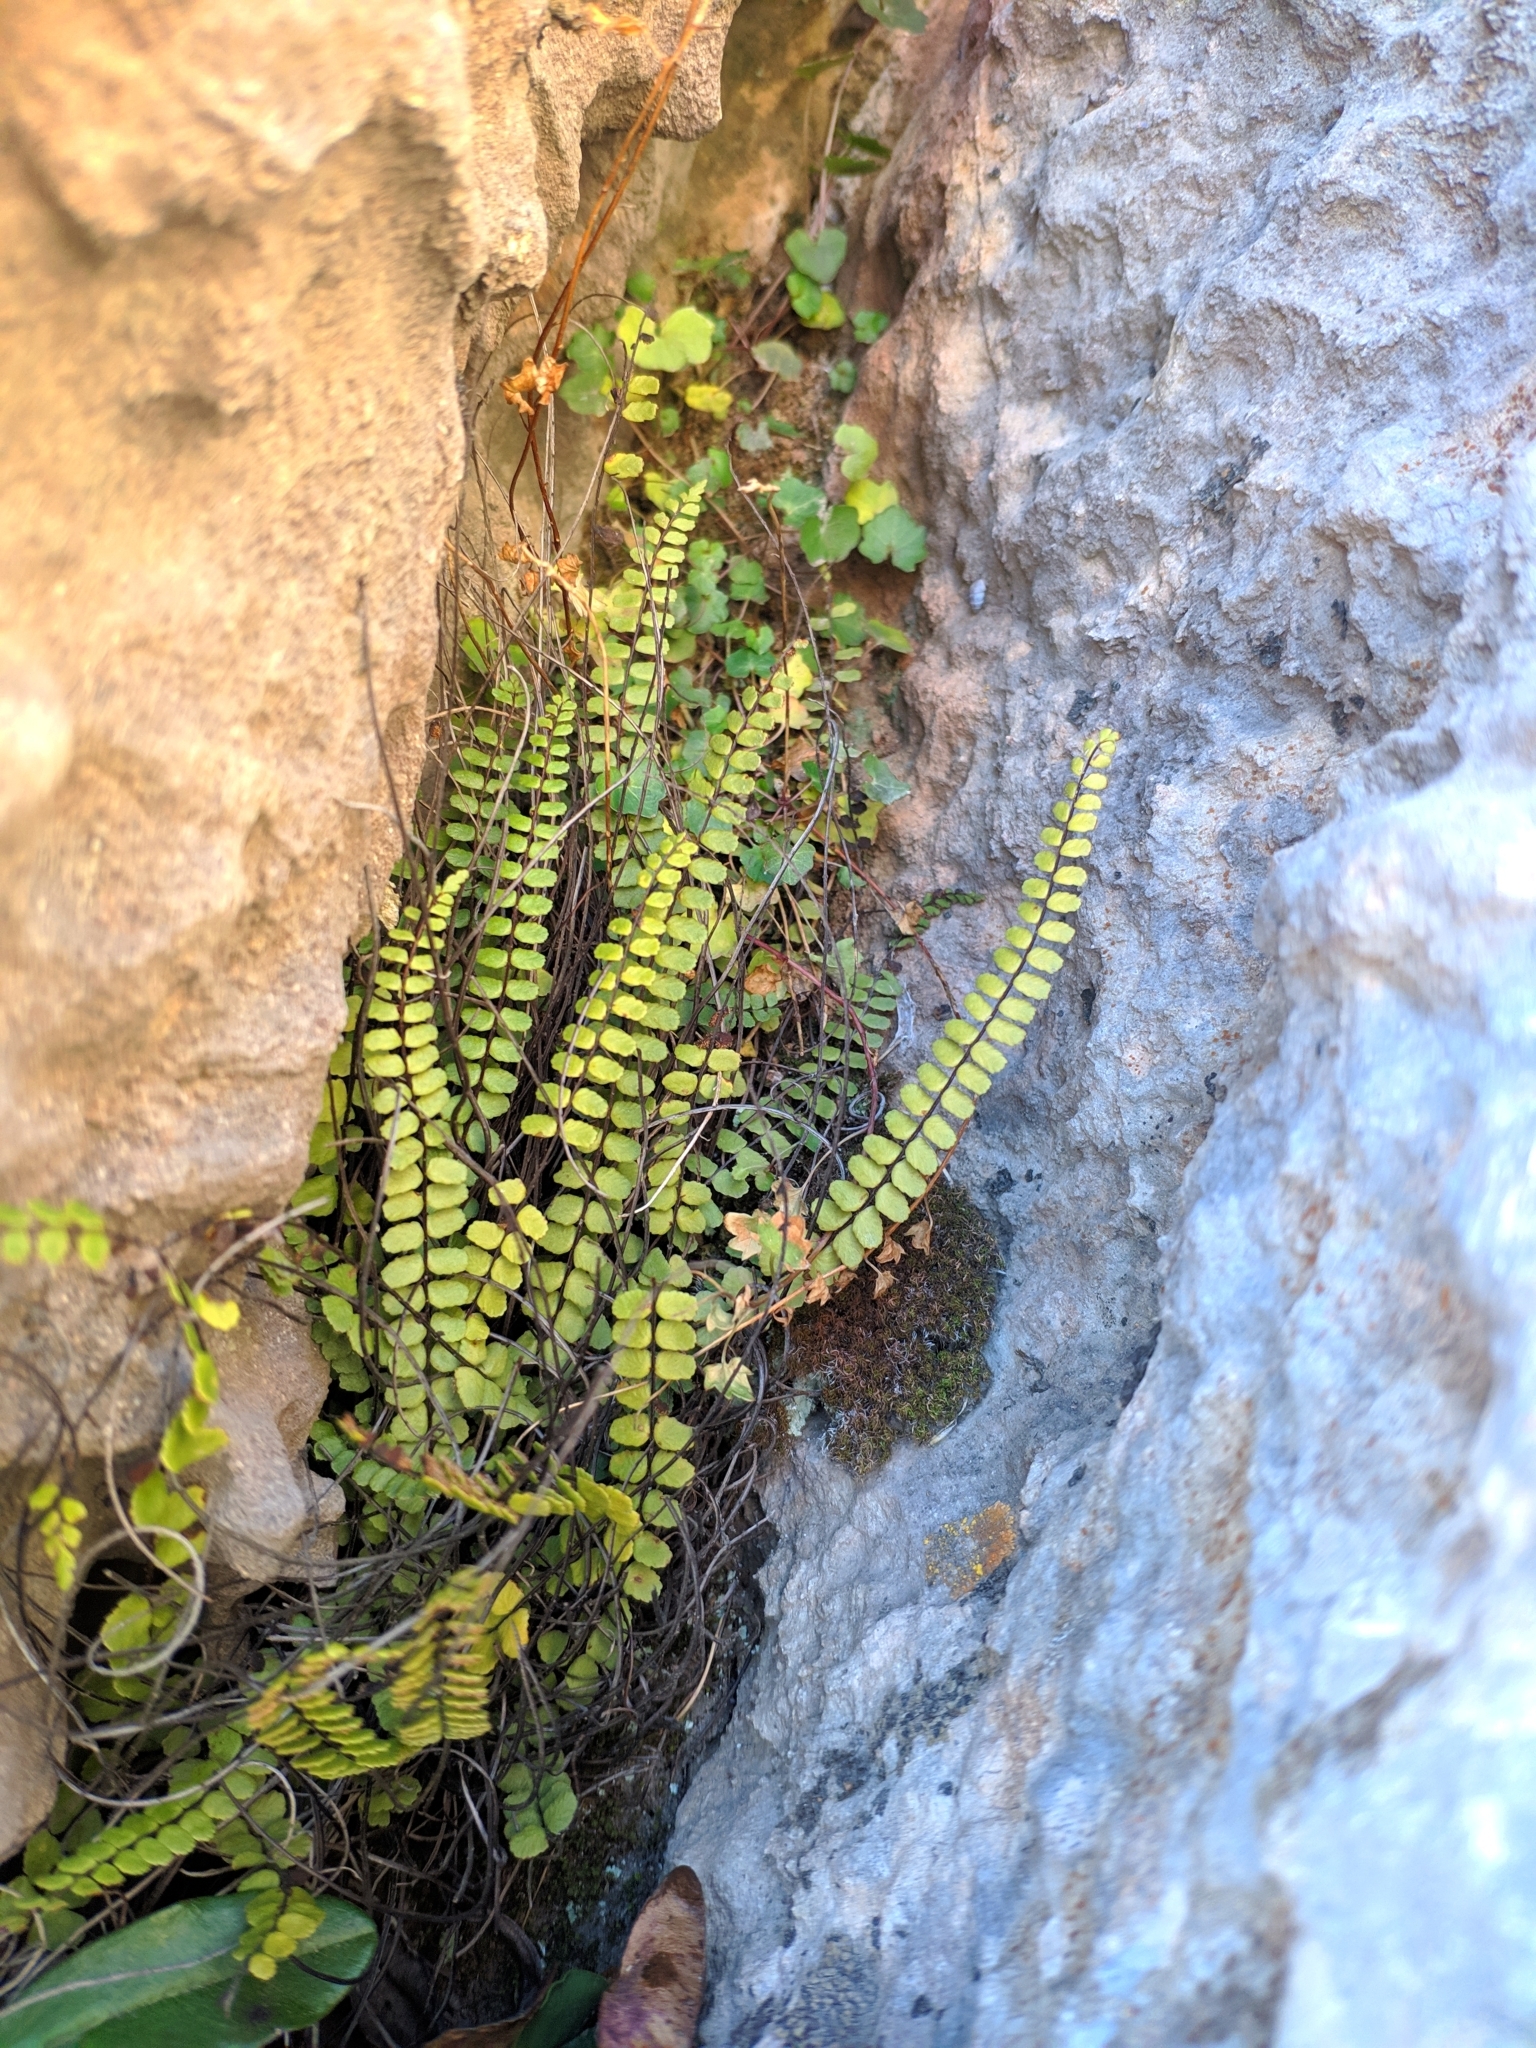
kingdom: Plantae
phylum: Tracheophyta
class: Polypodiopsida
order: Polypodiales
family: Aspleniaceae
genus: Asplenium
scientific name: Asplenium trichomanes
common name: Maidenhair spleenwort
